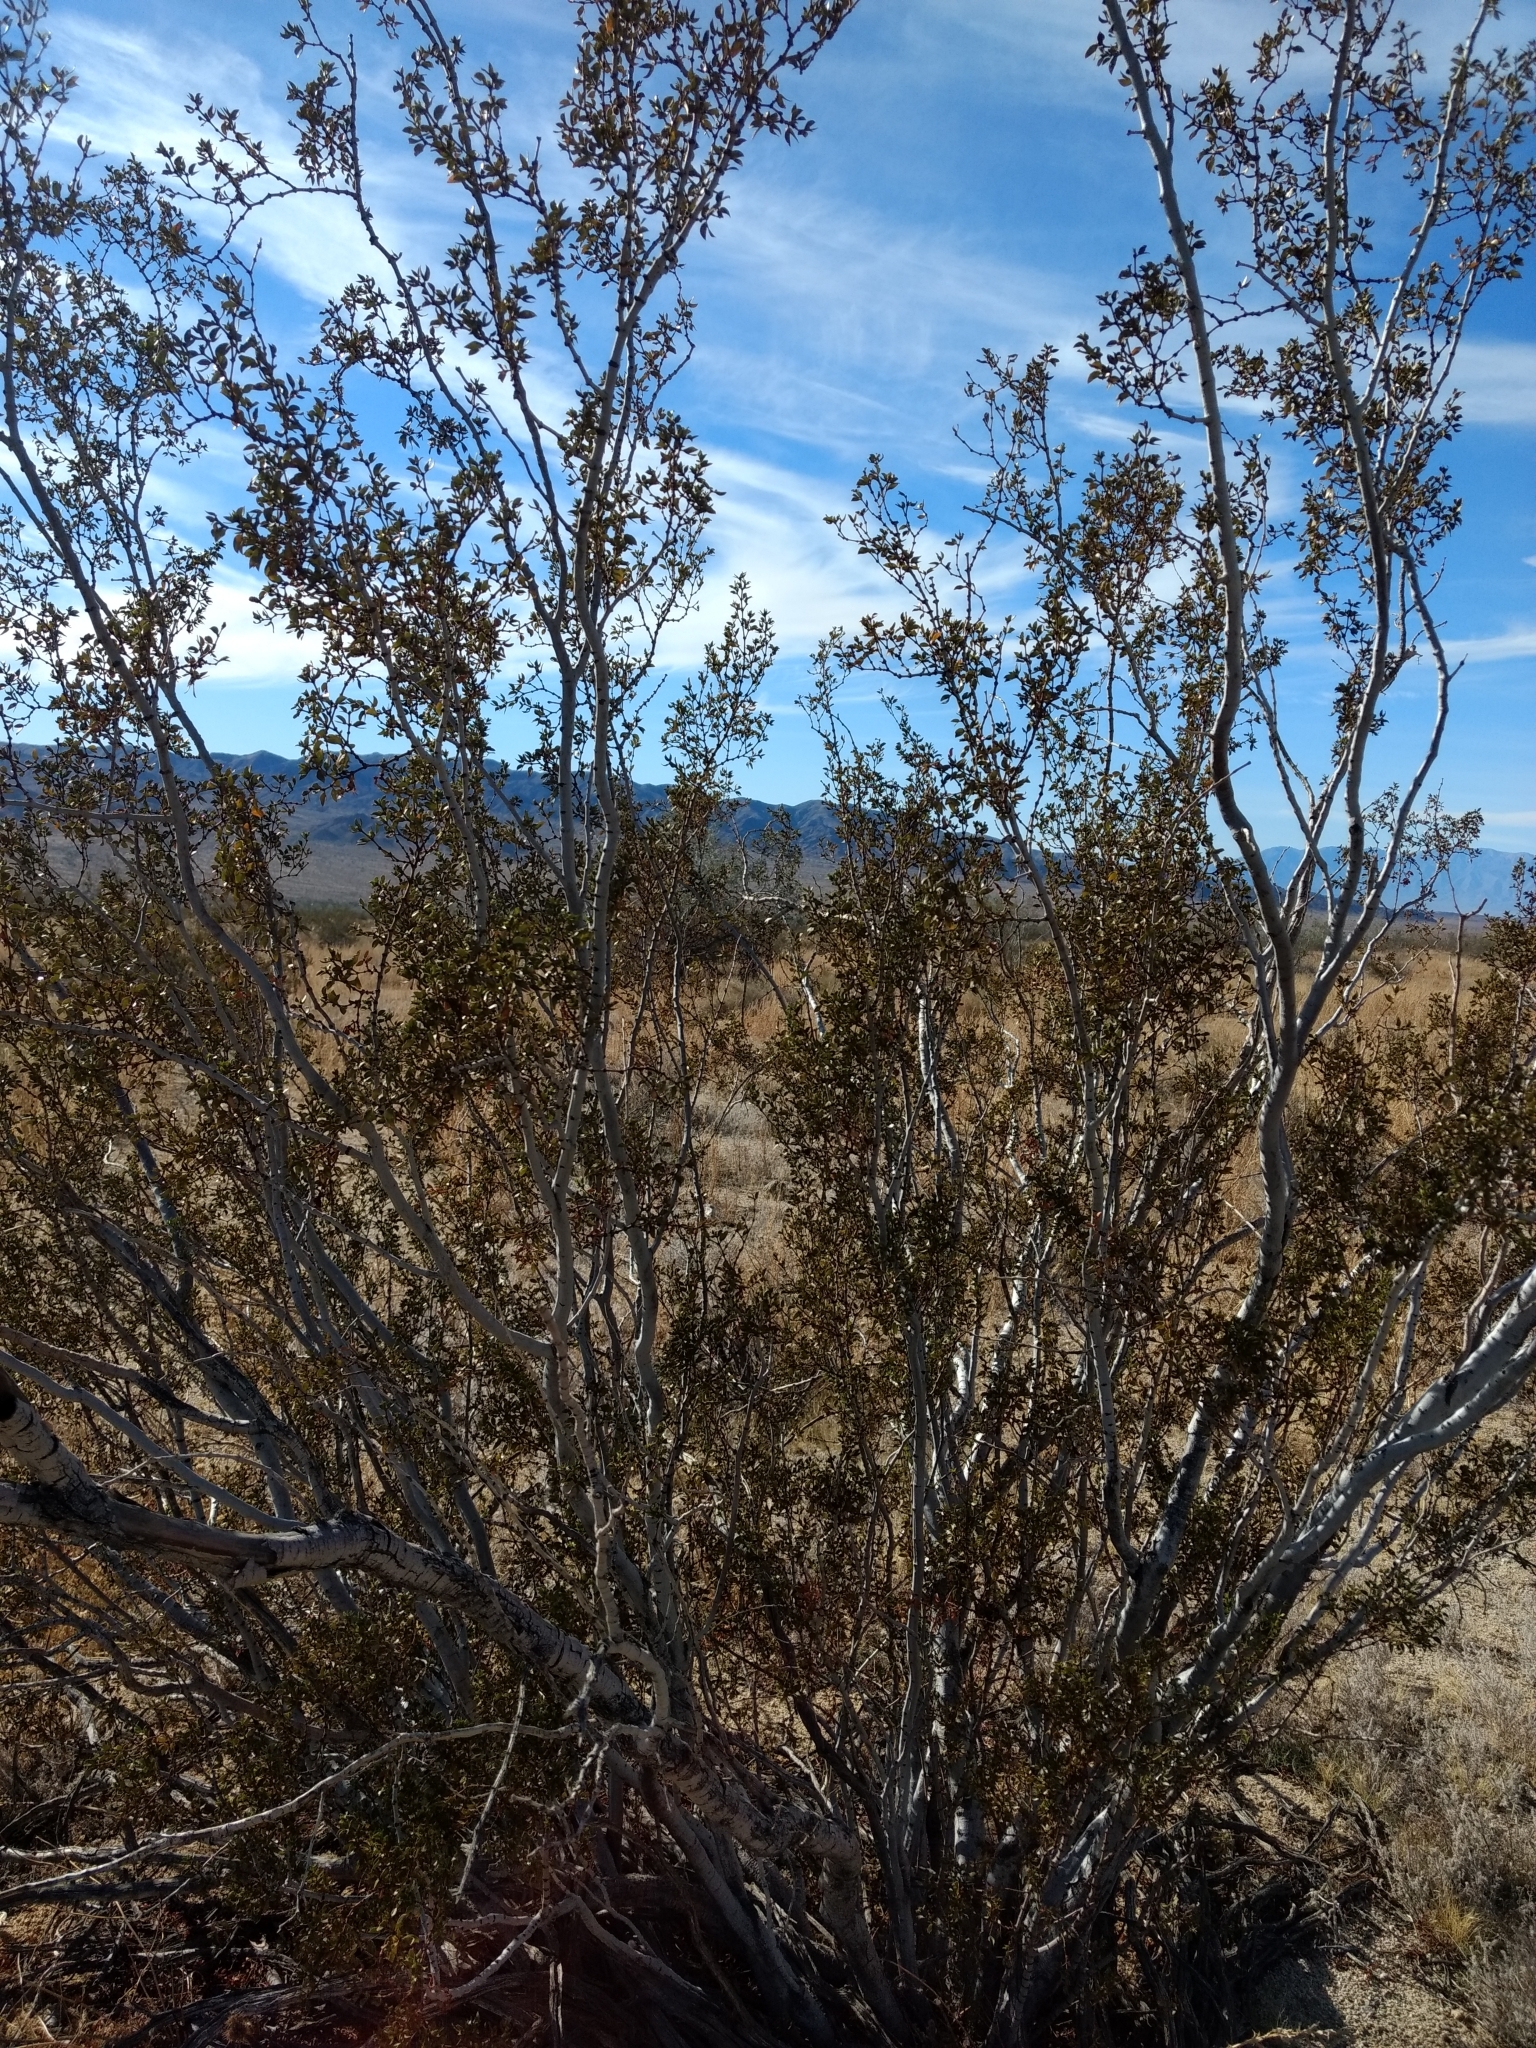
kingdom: Plantae
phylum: Tracheophyta
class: Magnoliopsida
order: Zygophyllales
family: Zygophyllaceae
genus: Larrea
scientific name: Larrea tridentata
